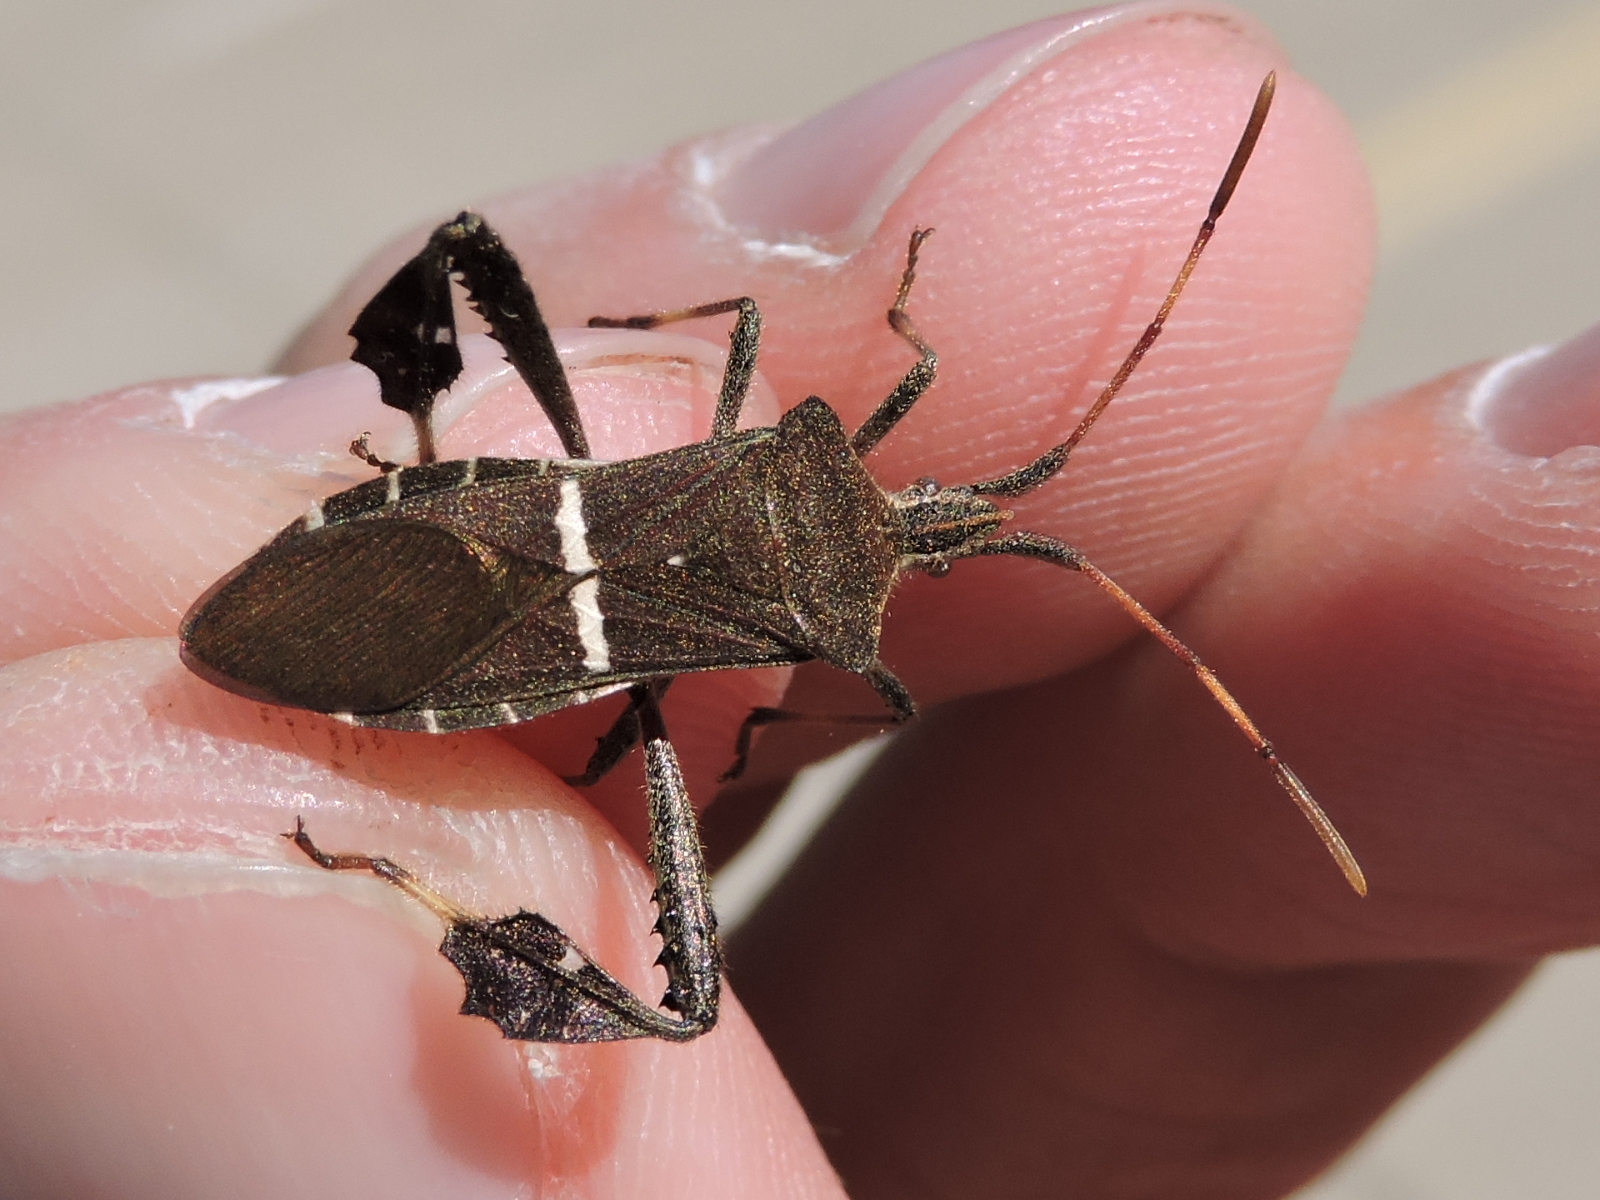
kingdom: Animalia
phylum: Arthropoda
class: Insecta
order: Hemiptera
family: Coreidae
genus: Leptoglossus
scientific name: Leptoglossus phyllopus
